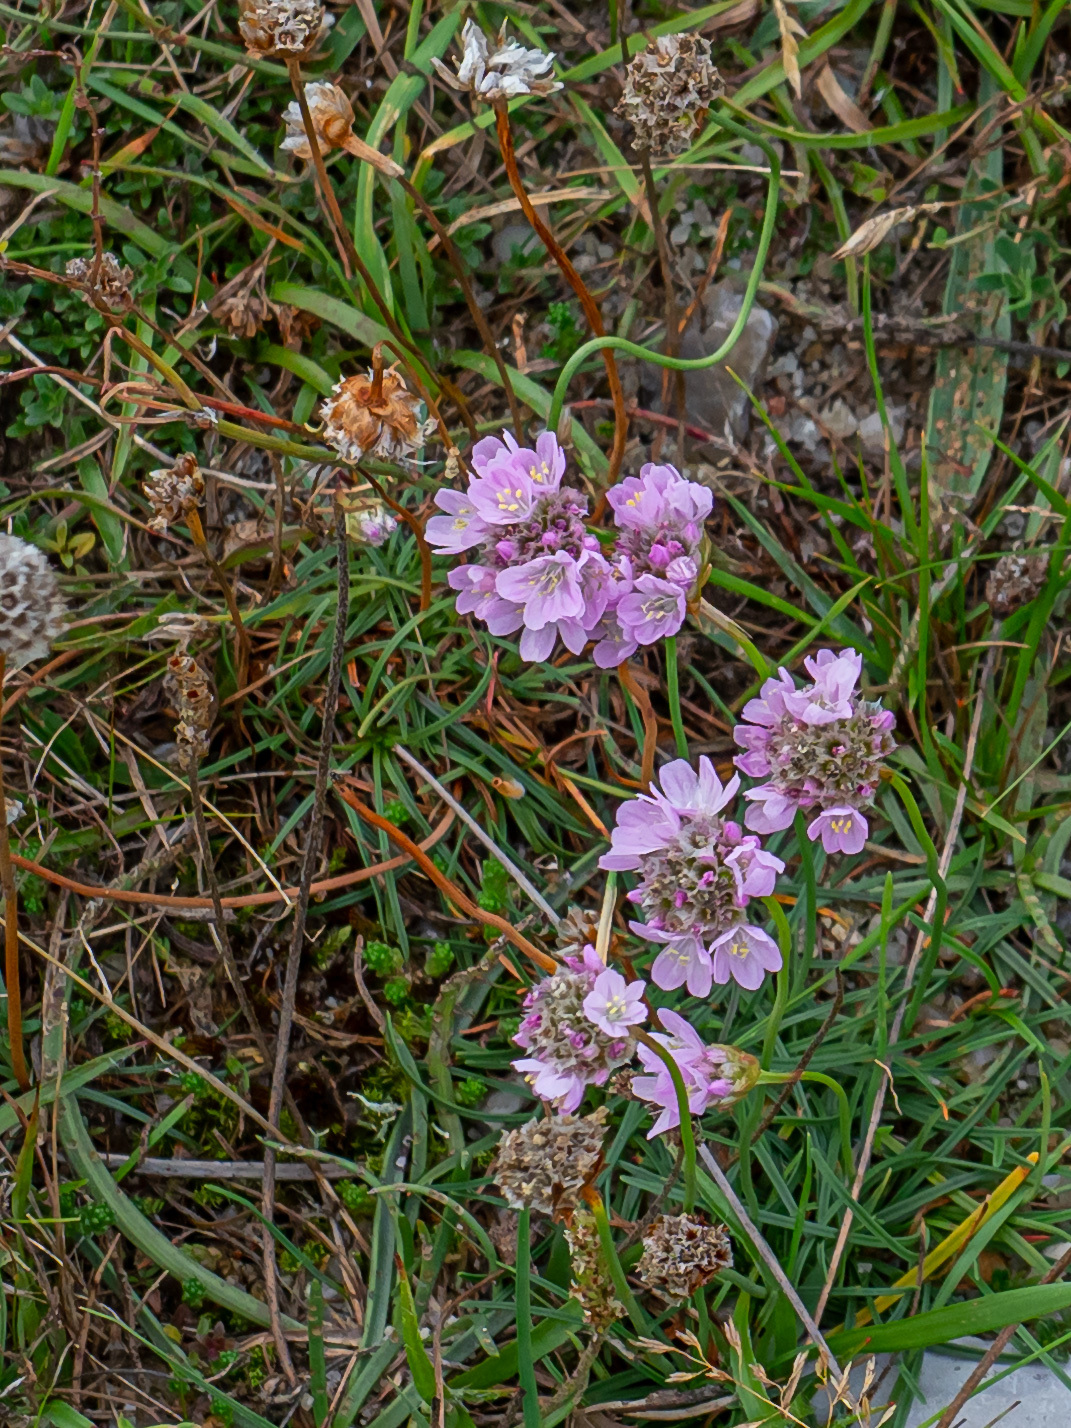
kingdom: Plantae
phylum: Tracheophyta
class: Magnoliopsida
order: Caryophyllales
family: Plumbaginaceae
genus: Armeria
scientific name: Armeria maritima
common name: Thrift
